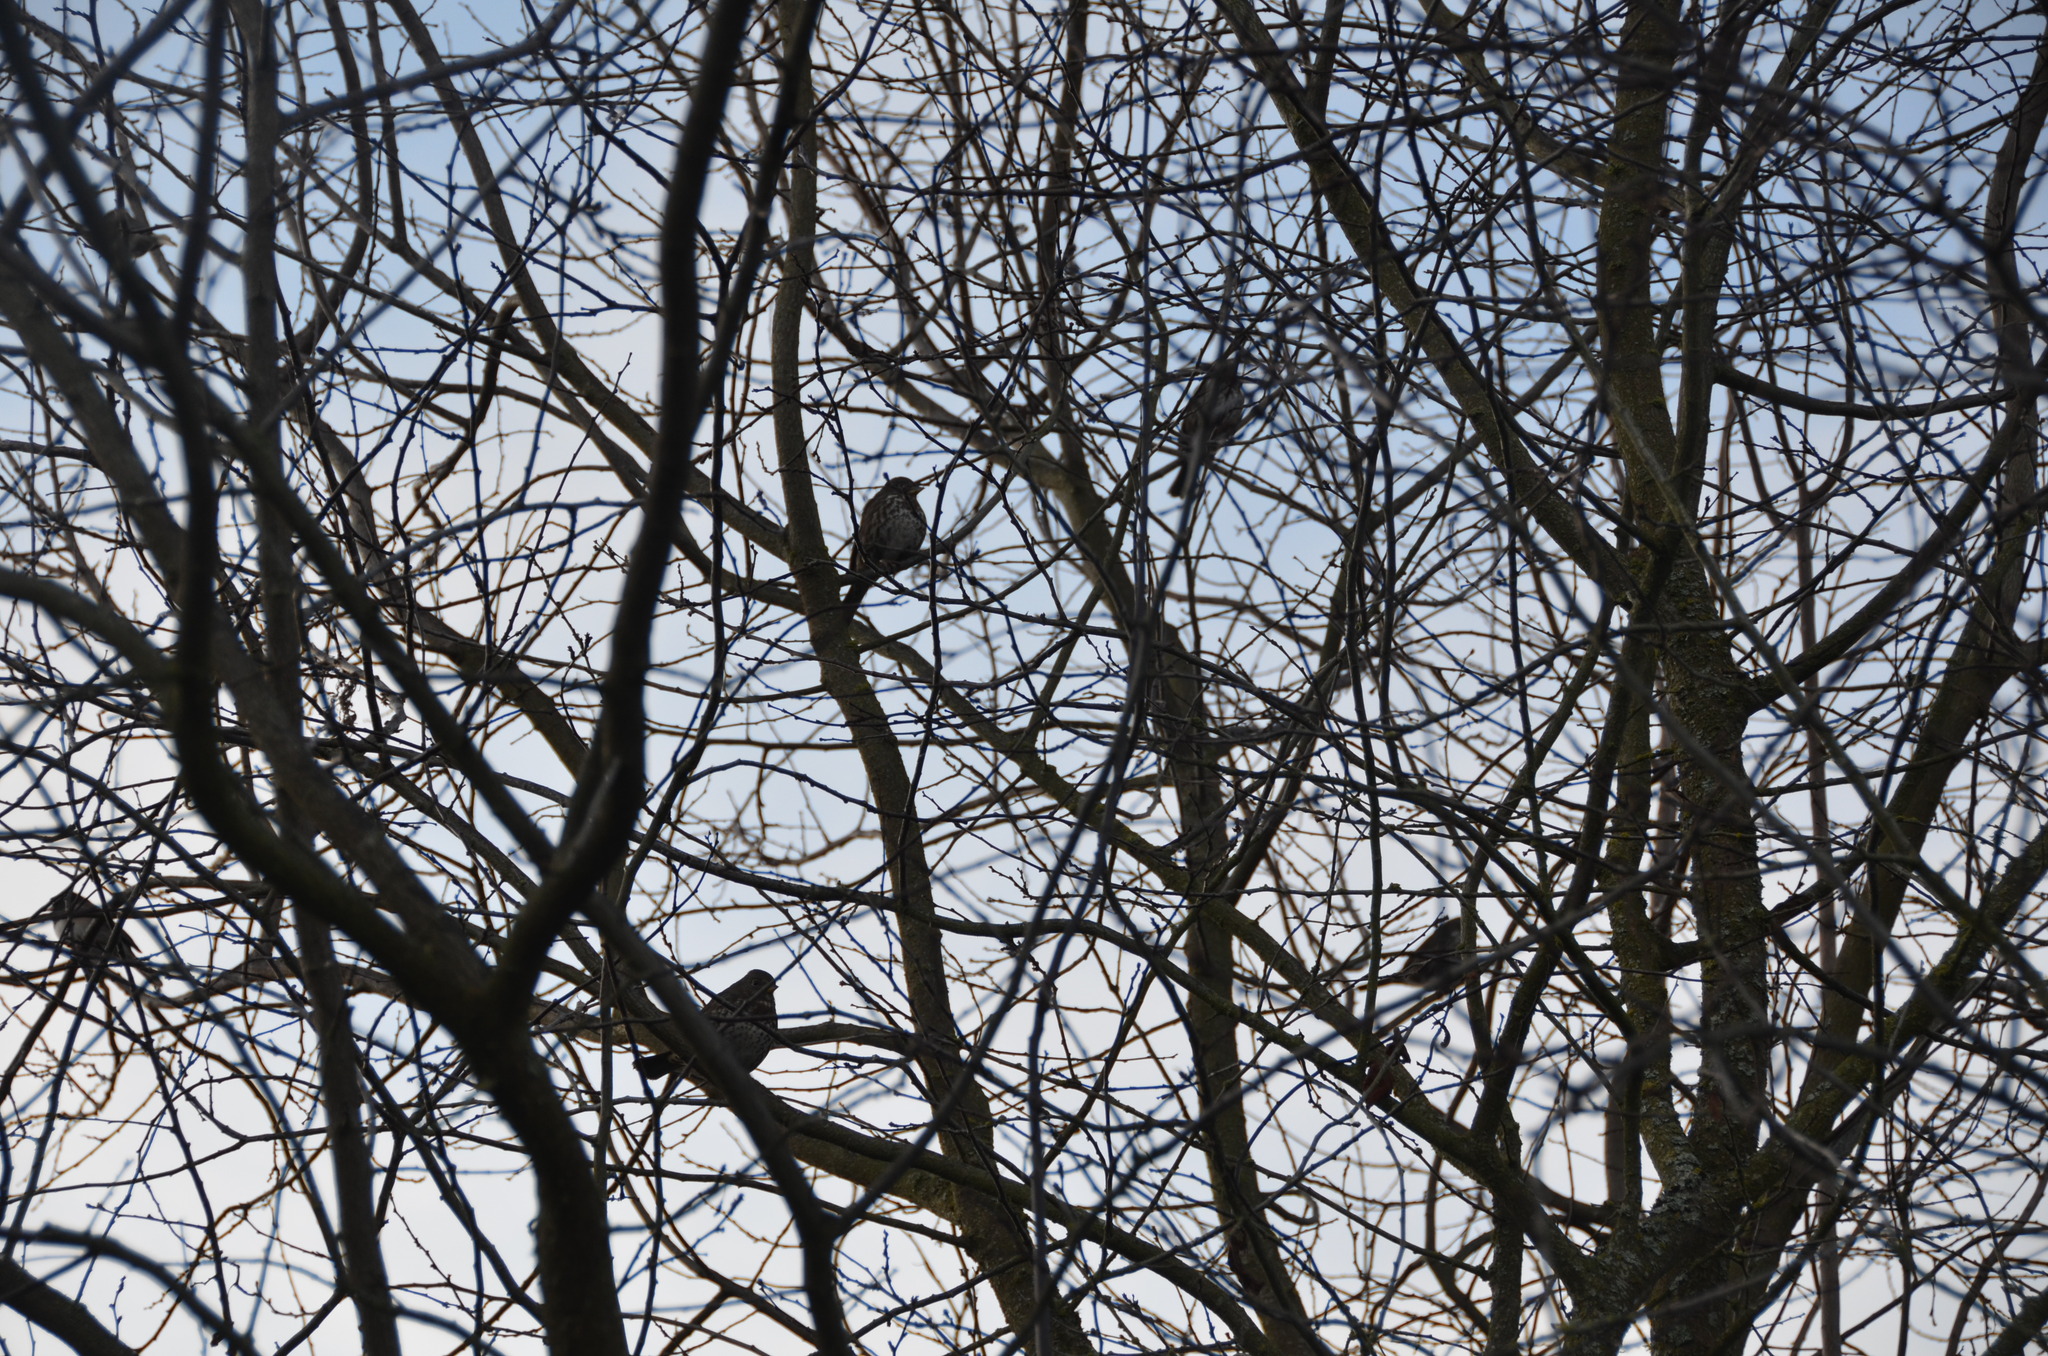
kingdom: Animalia
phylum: Chordata
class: Aves
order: Passeriformes
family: Passerellidae
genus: Passerella
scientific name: Passerella iliaca
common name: Fox sparrow
